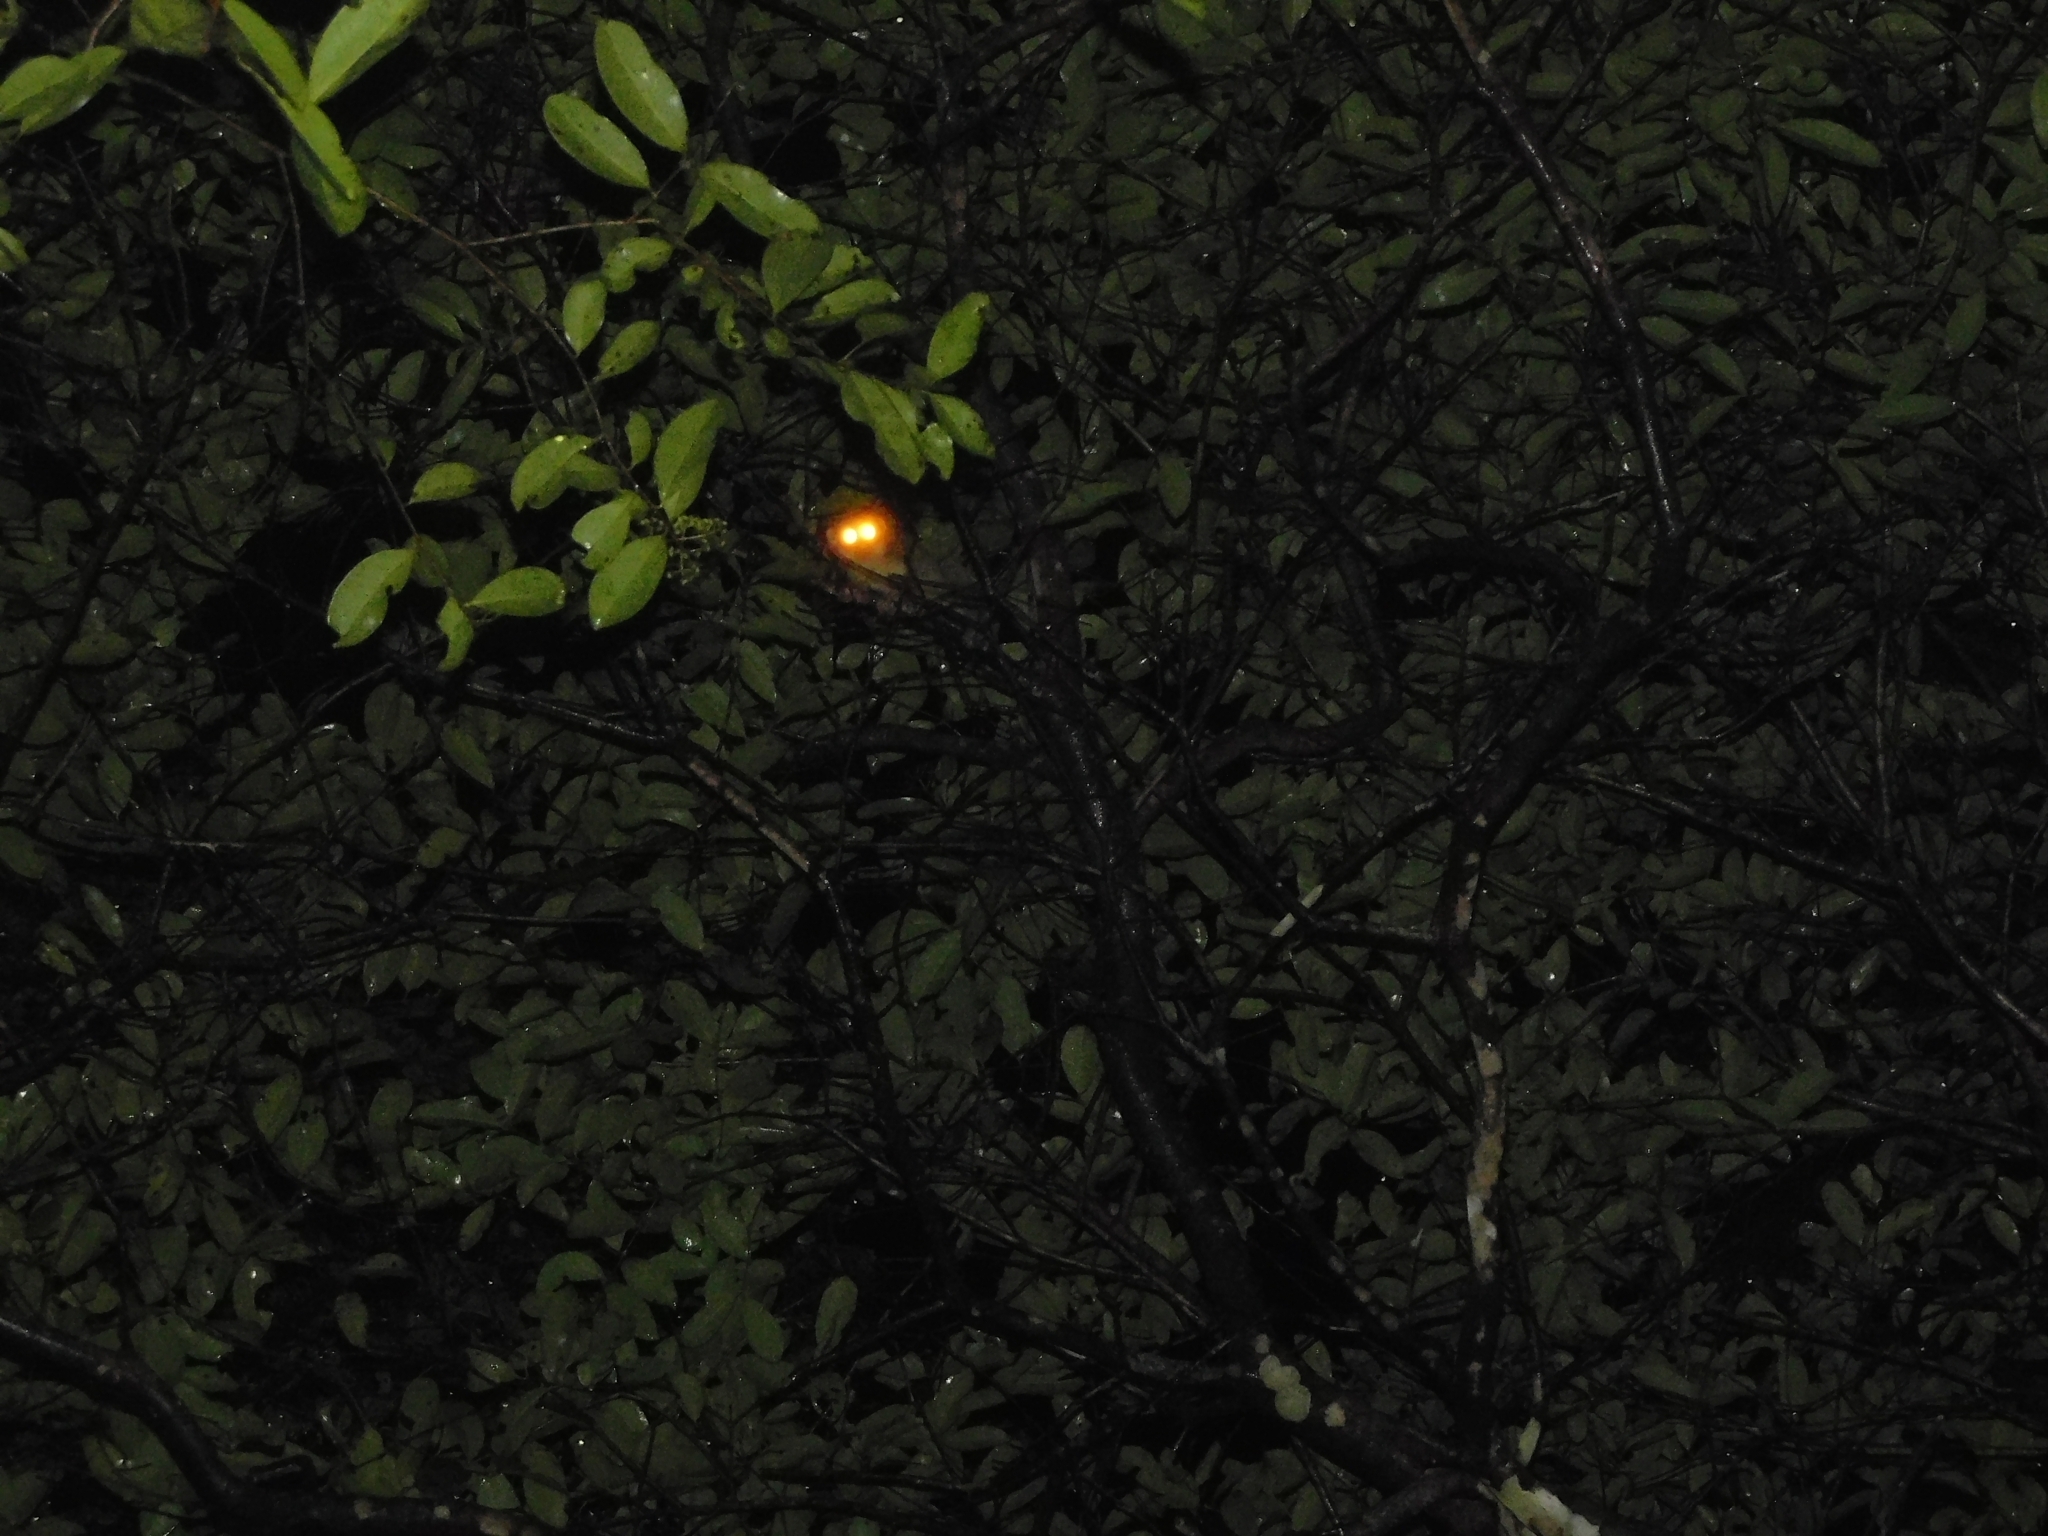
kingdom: Animalia
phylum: Chordata
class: Mammalia
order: Primates
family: Lorisidae
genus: Loris
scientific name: Loris lydekkerianus
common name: Gray slender loris
